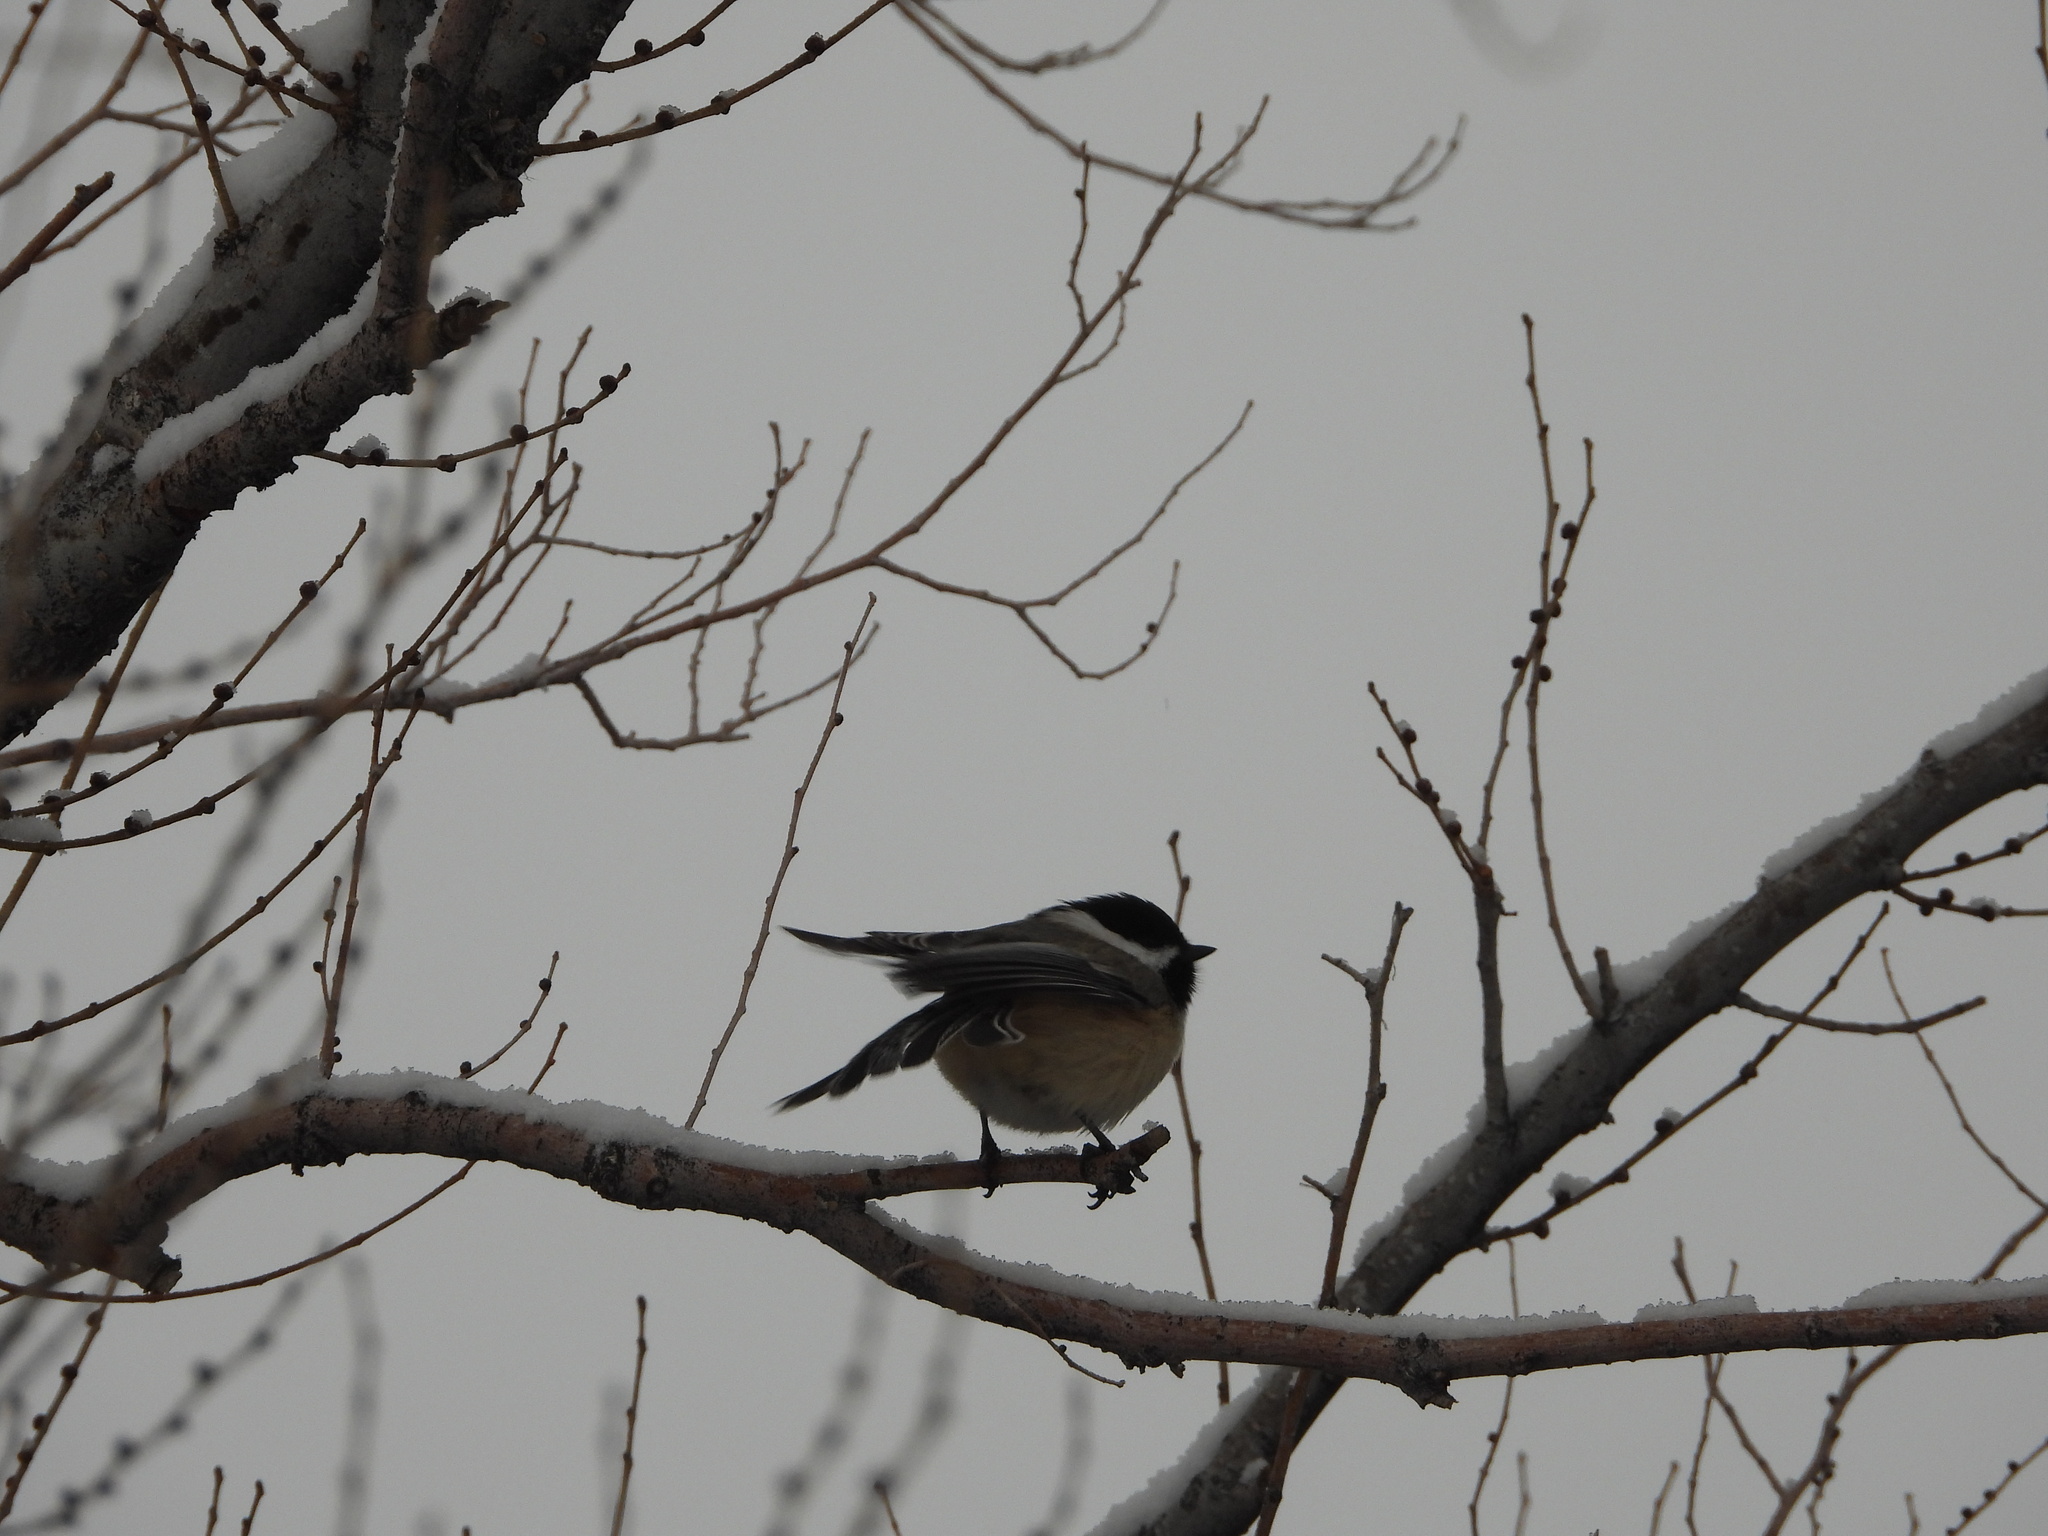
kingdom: Animalia
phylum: Chordata
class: Aves
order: Passeriformes
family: Paridae
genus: Poecile
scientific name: Poecile atricapillus
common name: Black-capped chickadee
